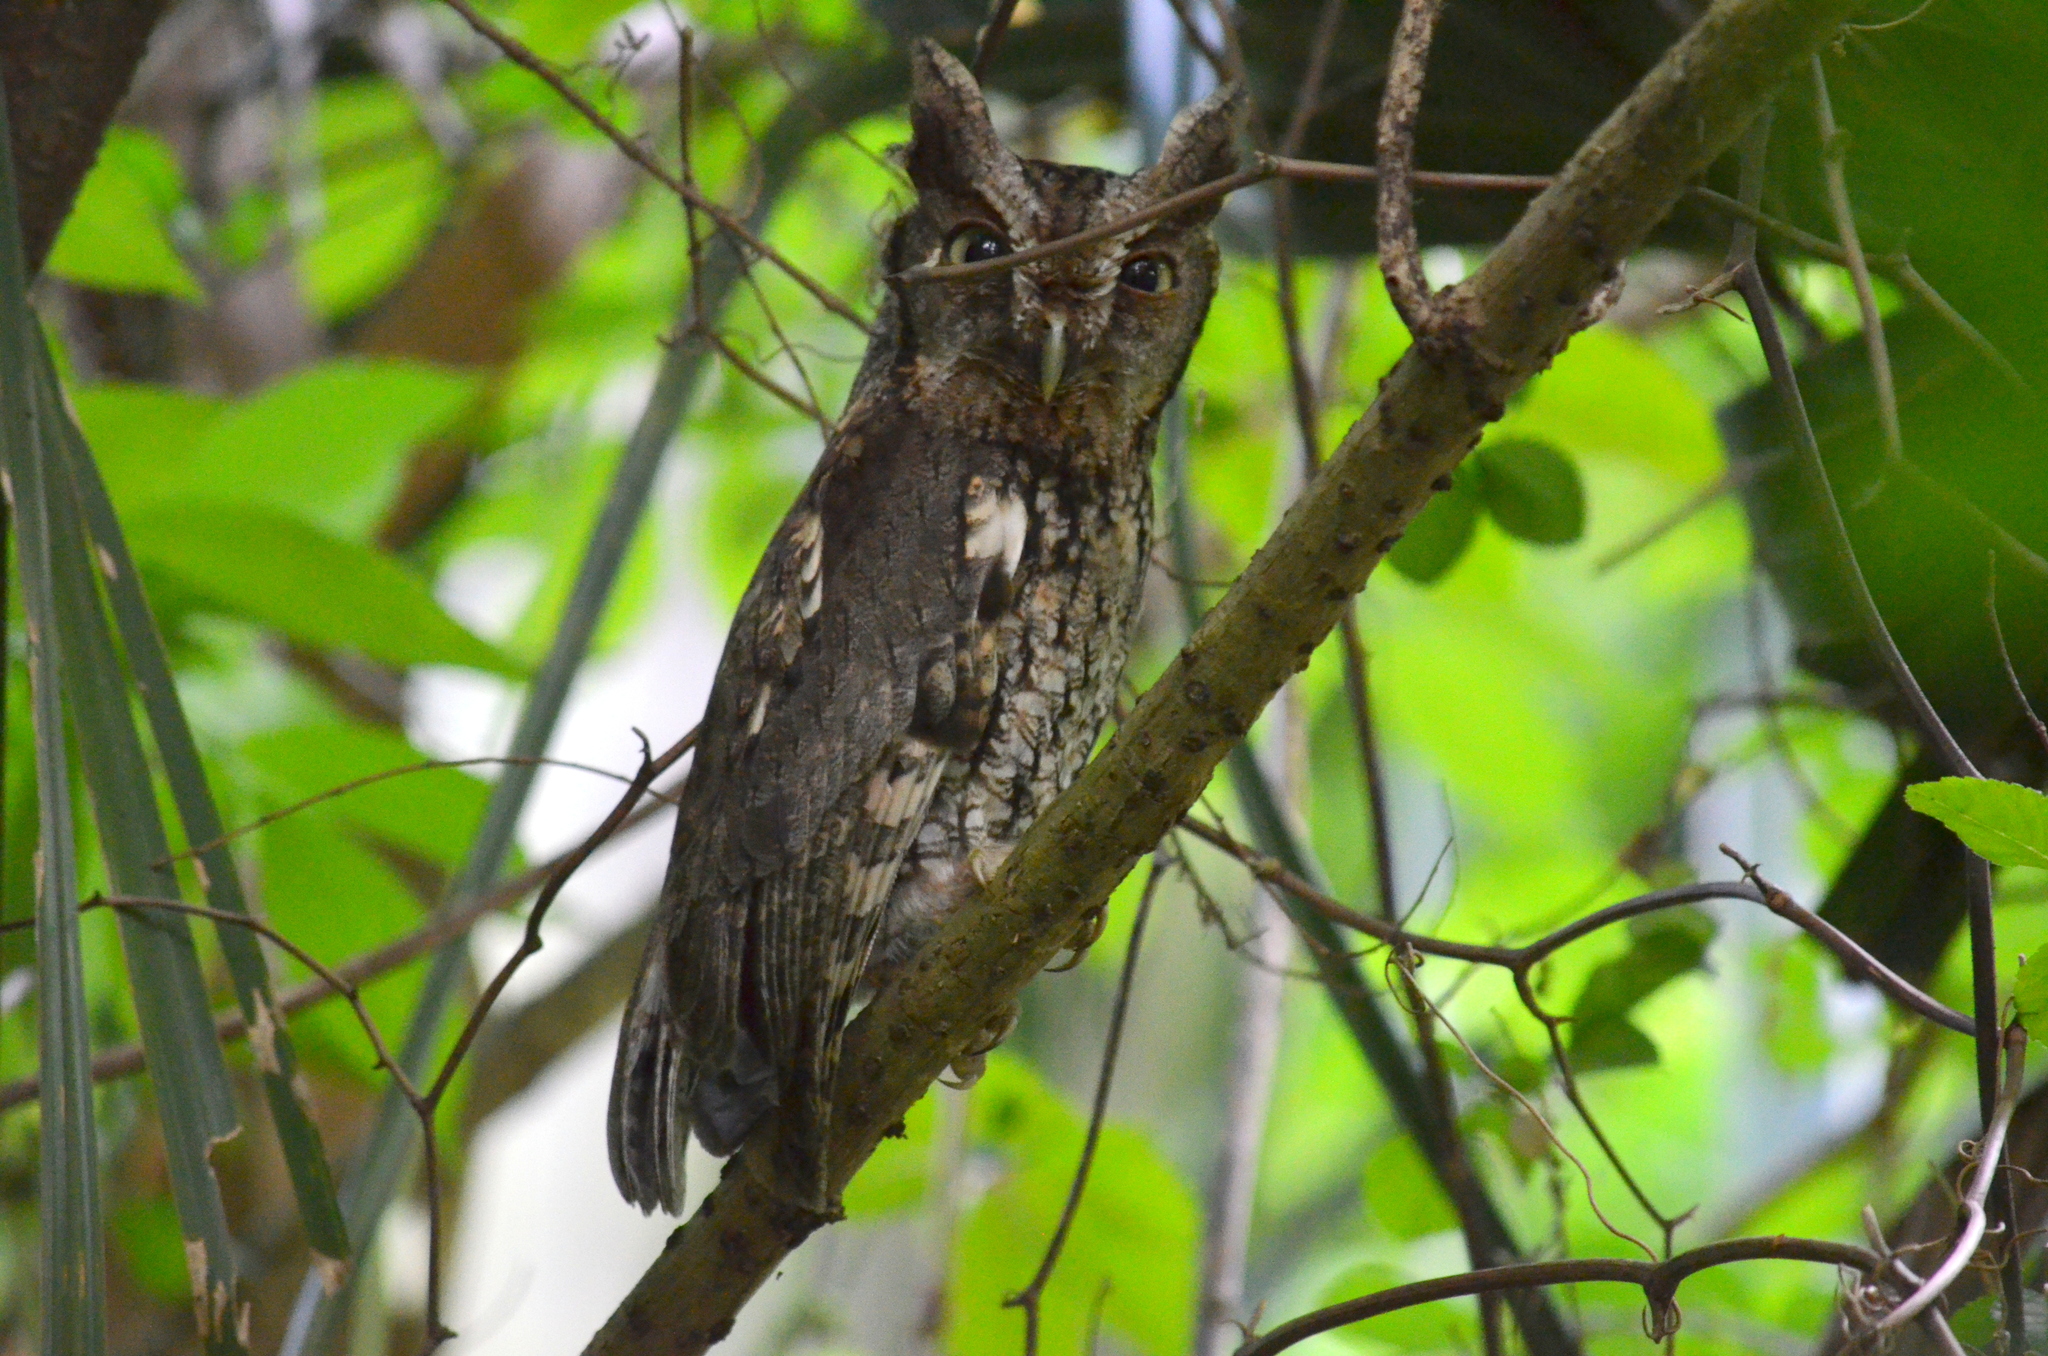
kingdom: Animalia
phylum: Chordata
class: Aves
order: Strigiformes
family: Strigidae
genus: Megascops
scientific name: Megascops asio
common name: Eastern screech-owl
